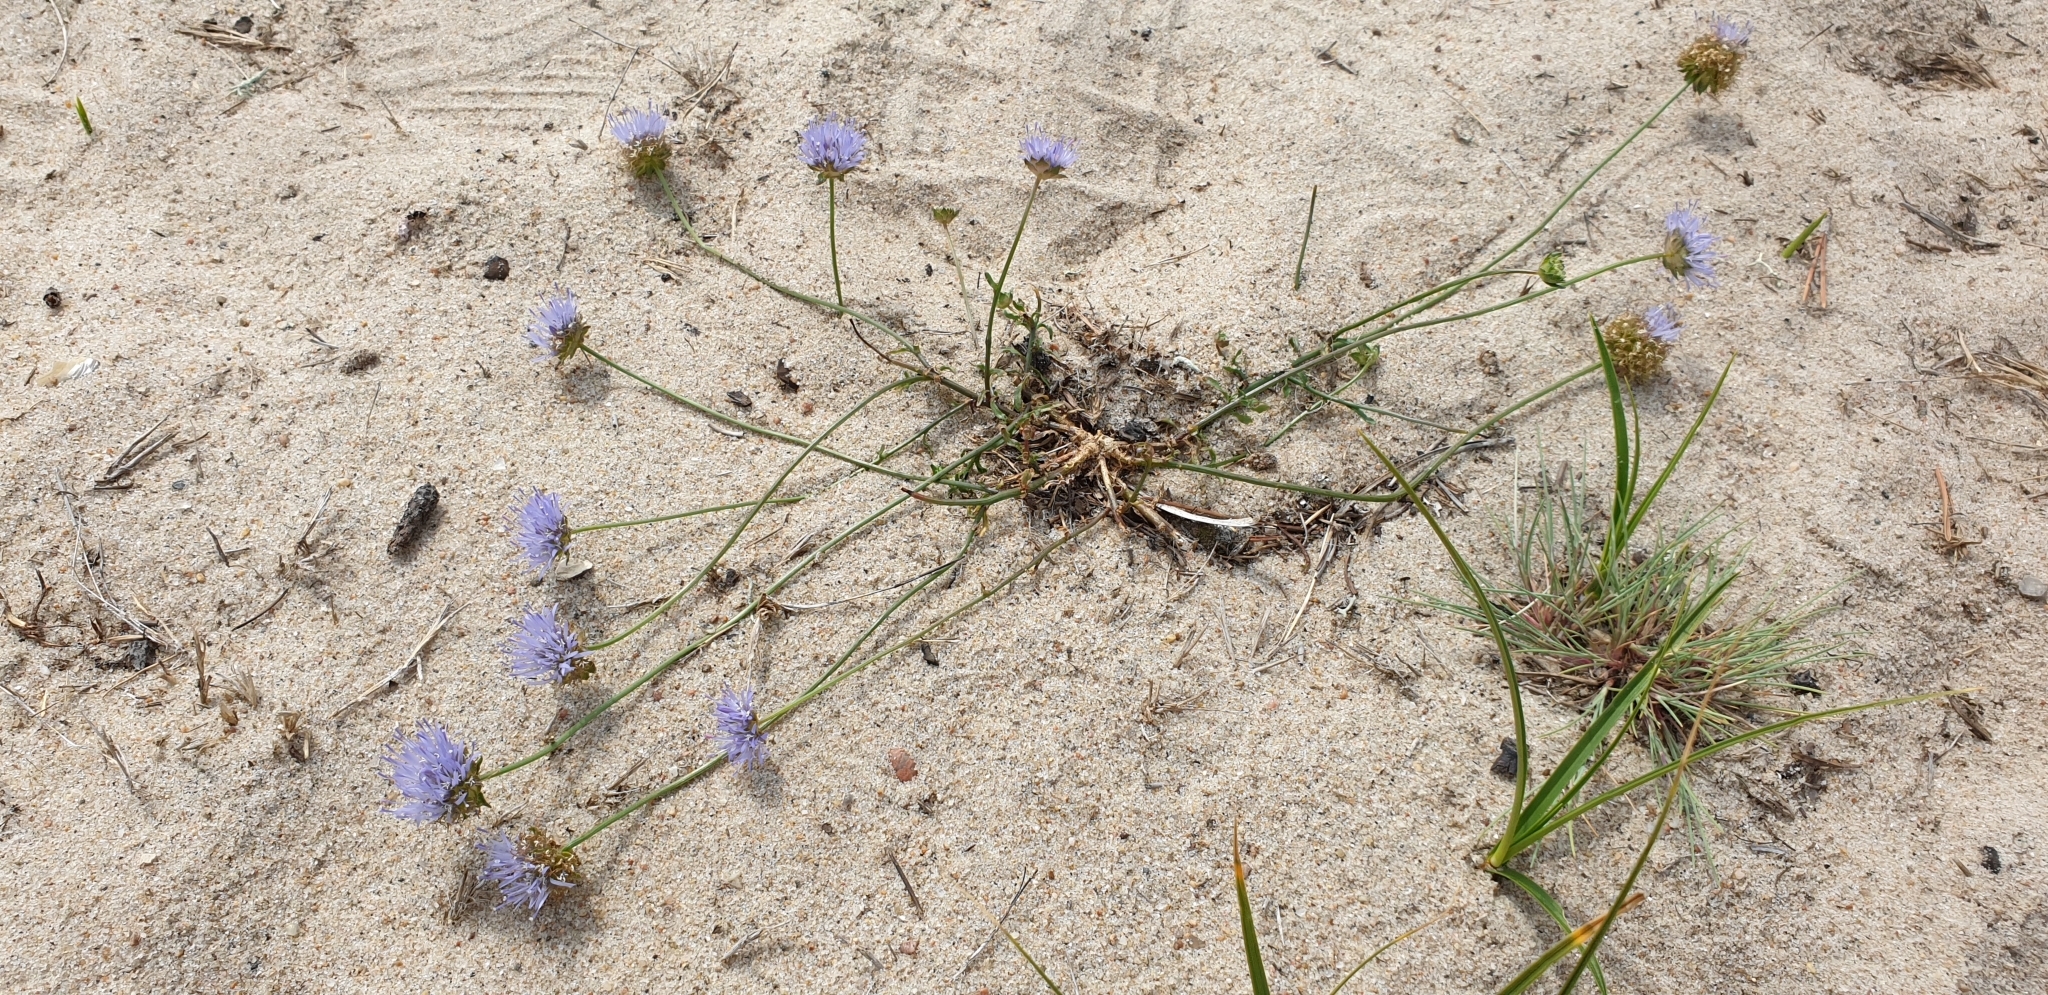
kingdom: Plantae
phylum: Tracheophyta
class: Magnoliopsida
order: Asterales
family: Campanulaceae
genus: Jasione
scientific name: Jasione montana
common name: Sheep's-bit
